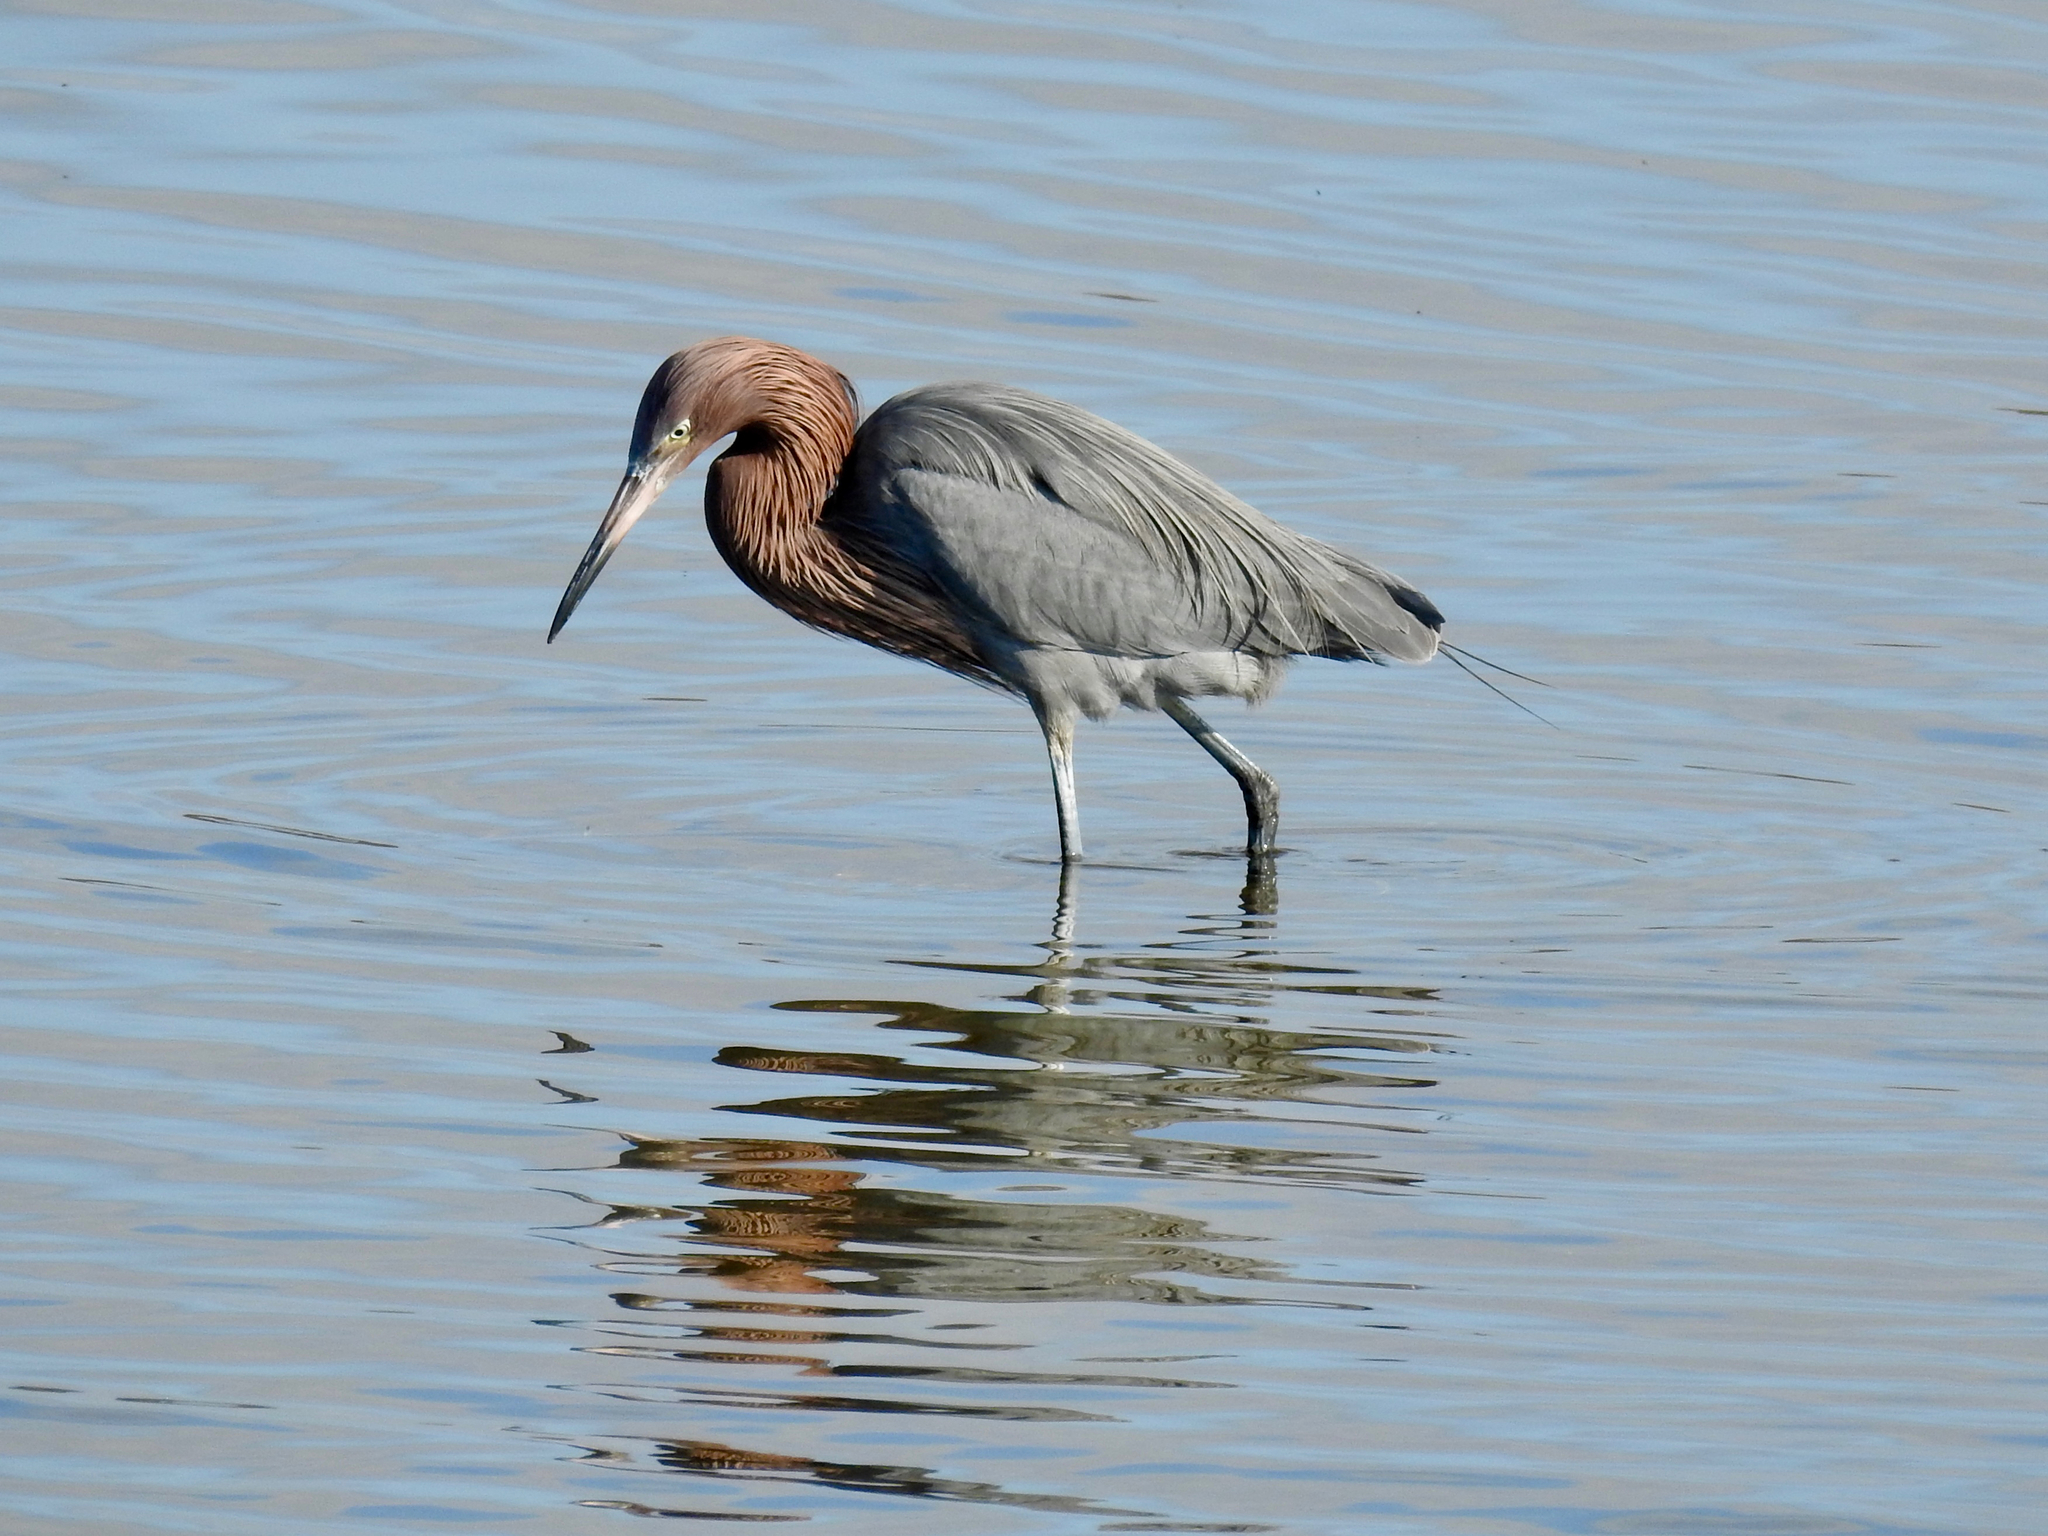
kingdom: Animalia
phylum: Chordata
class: Aves
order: Pelecaniformes
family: Ardeidae
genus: Egretta
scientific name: Egretta rufescens
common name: Reddish egret
